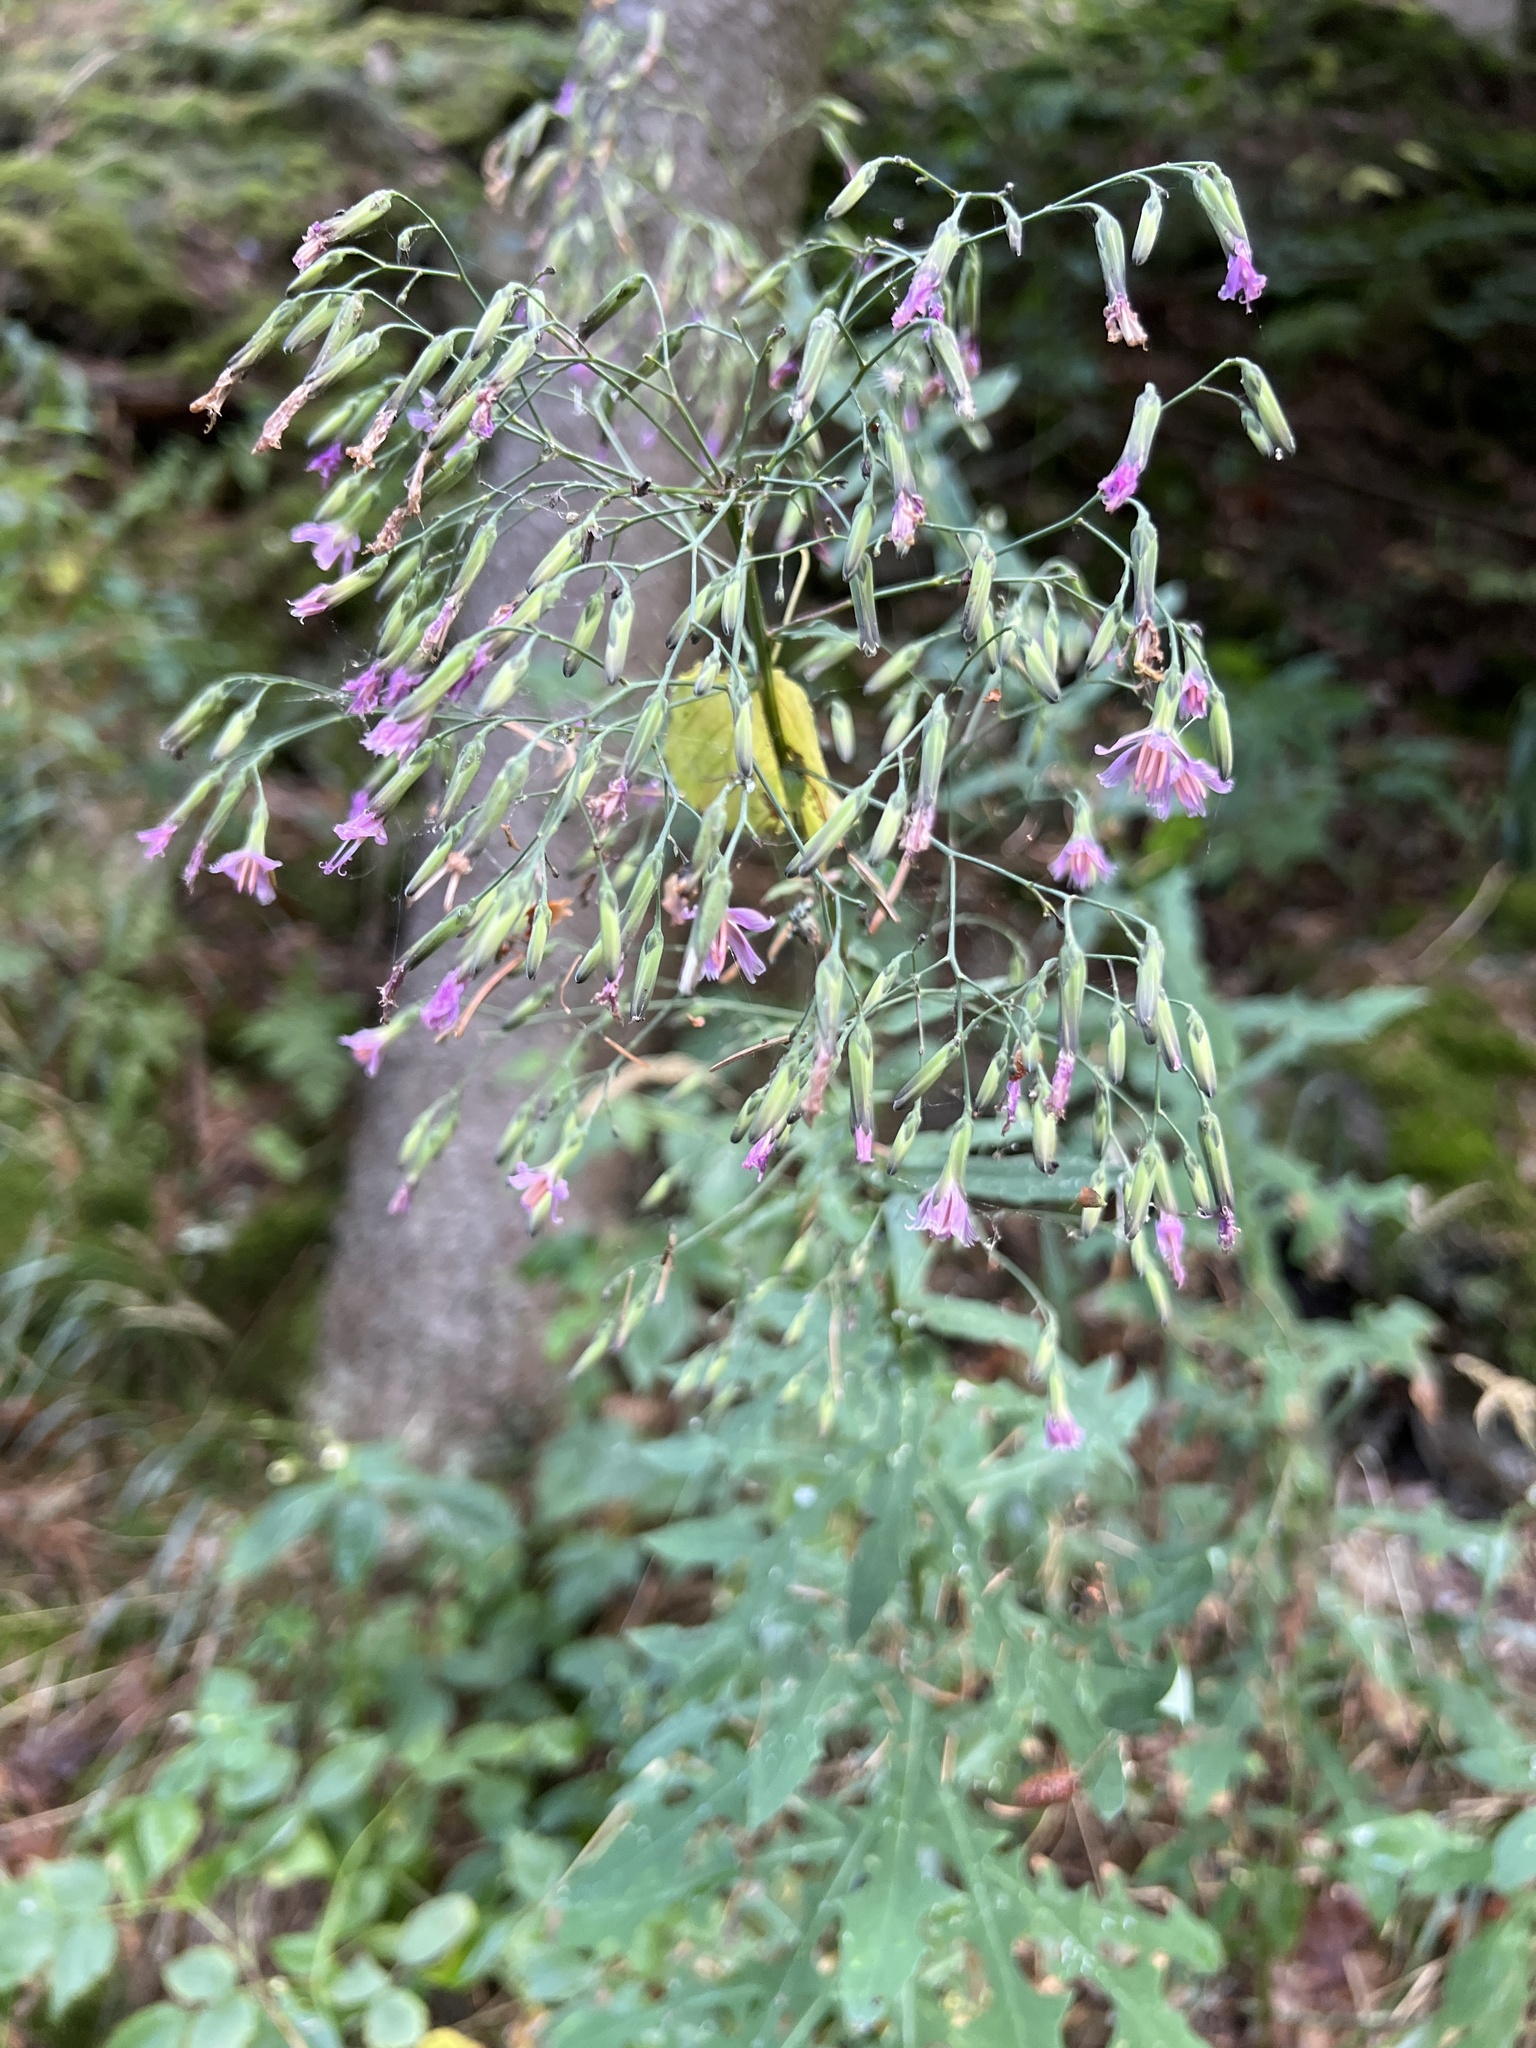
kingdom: Plantae
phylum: Tracheophyta
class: Magnoliopsida
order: Asterales
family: Asteraceae
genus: Prenanthes
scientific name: Prenanthes purpurea
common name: Purple lettuce
